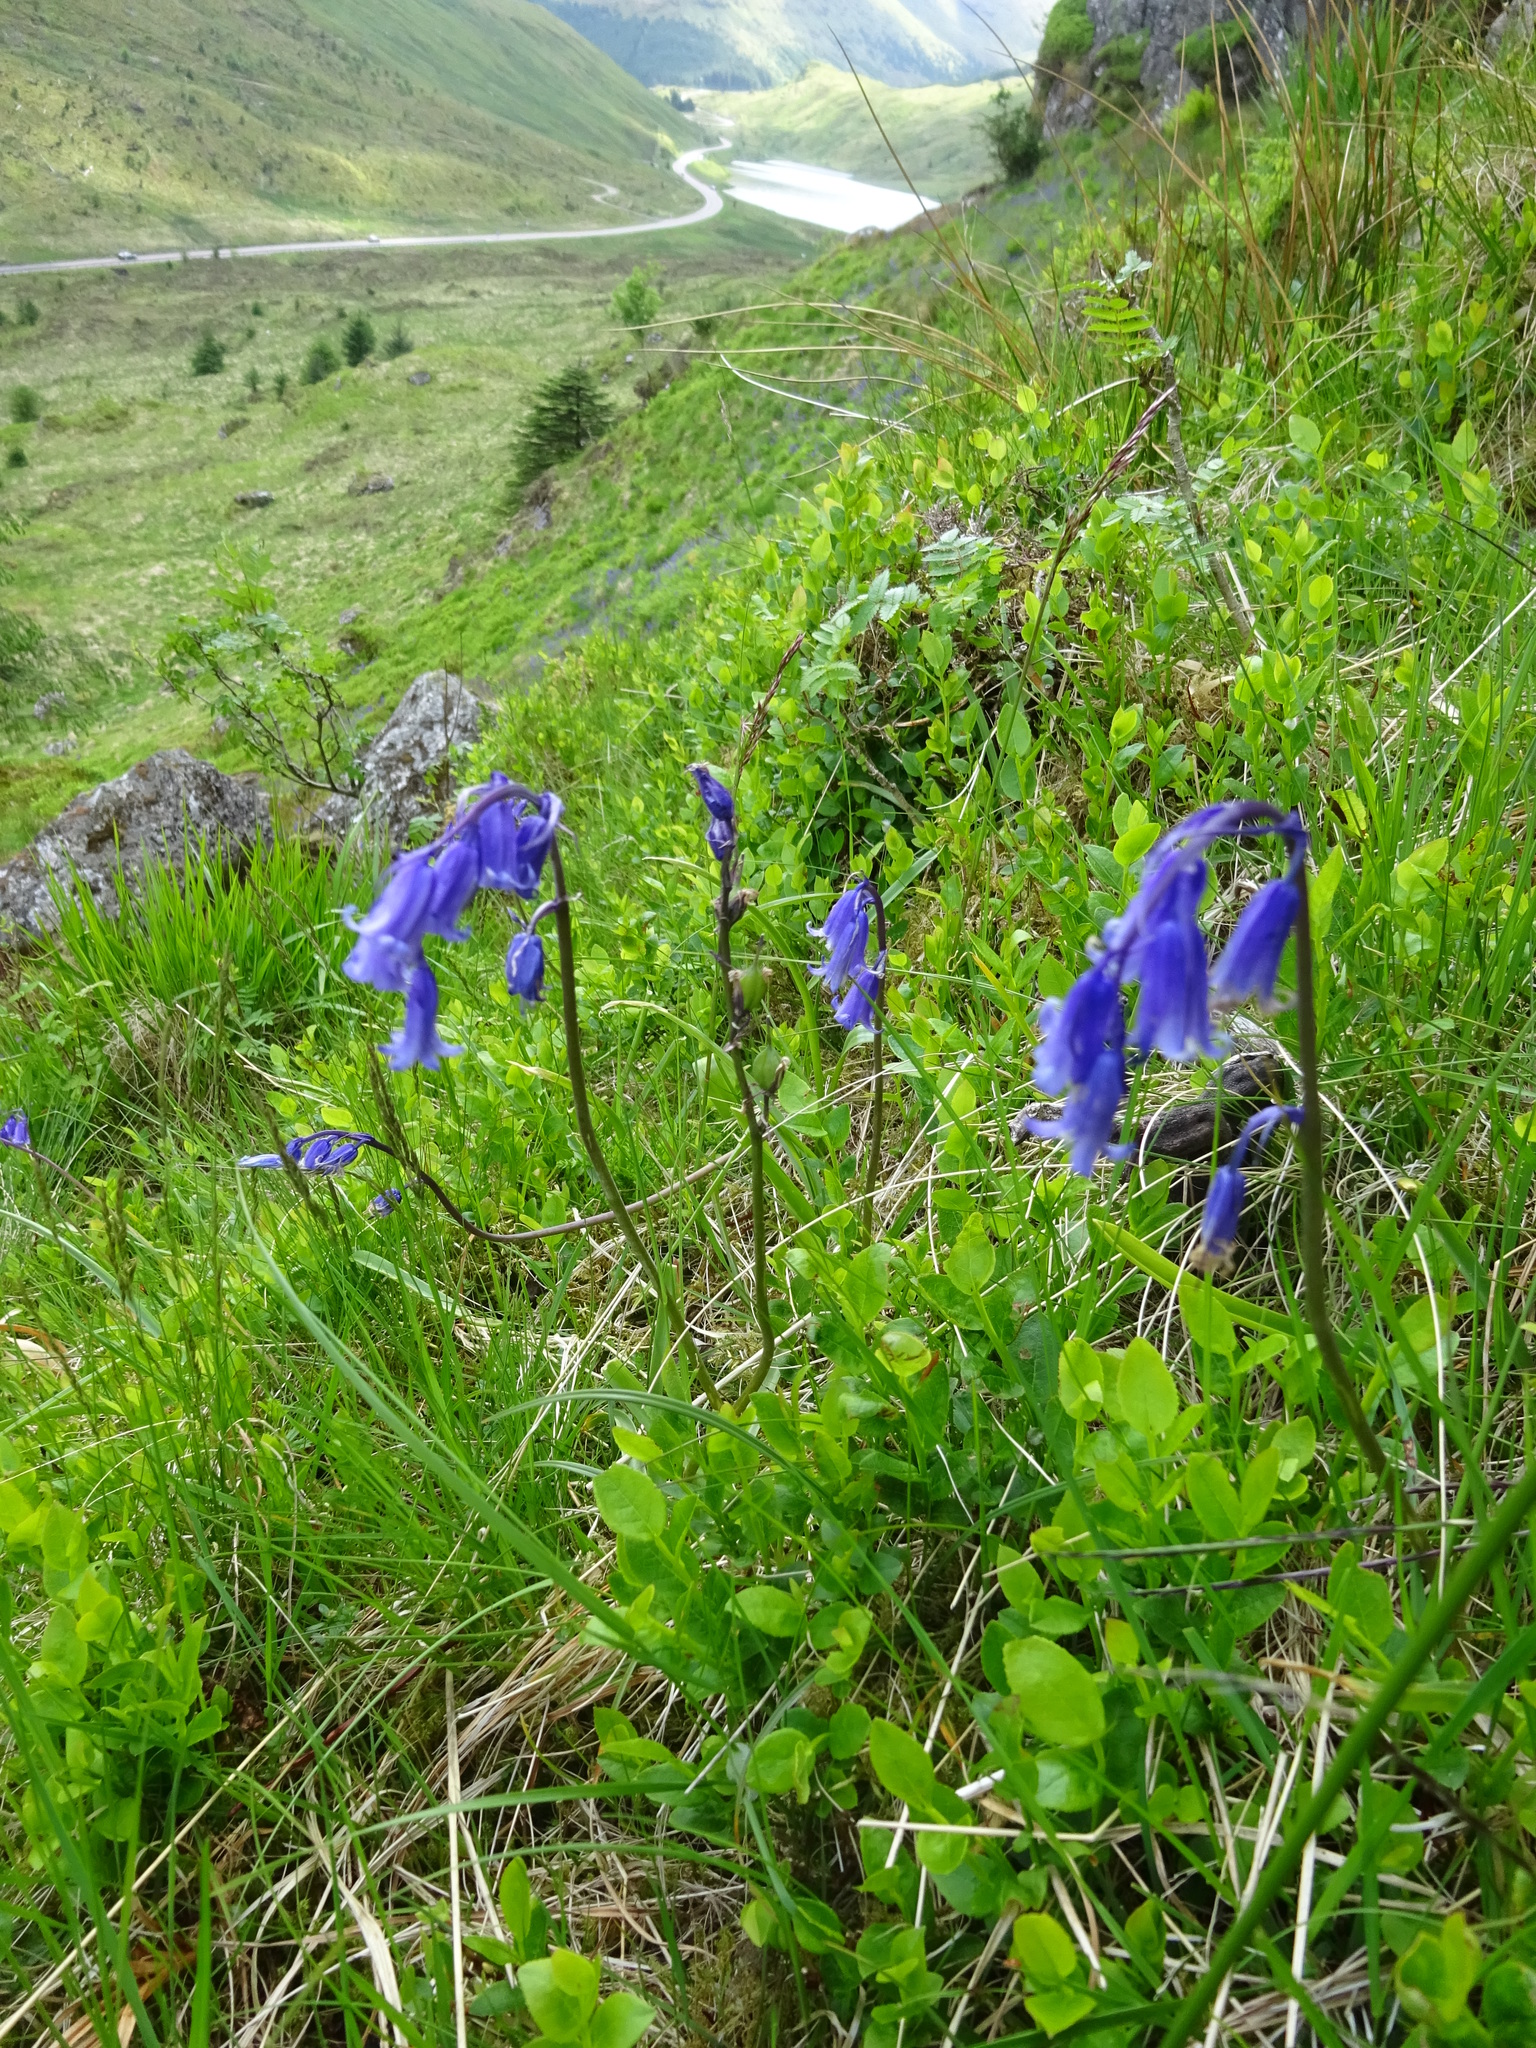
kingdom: Plantae
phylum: Tracheophyta
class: Liliopsida
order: Asparagales
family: Asparagaceae
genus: Hyacinthoides
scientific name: Hyacinthoides non-scripta
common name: Bluebell
